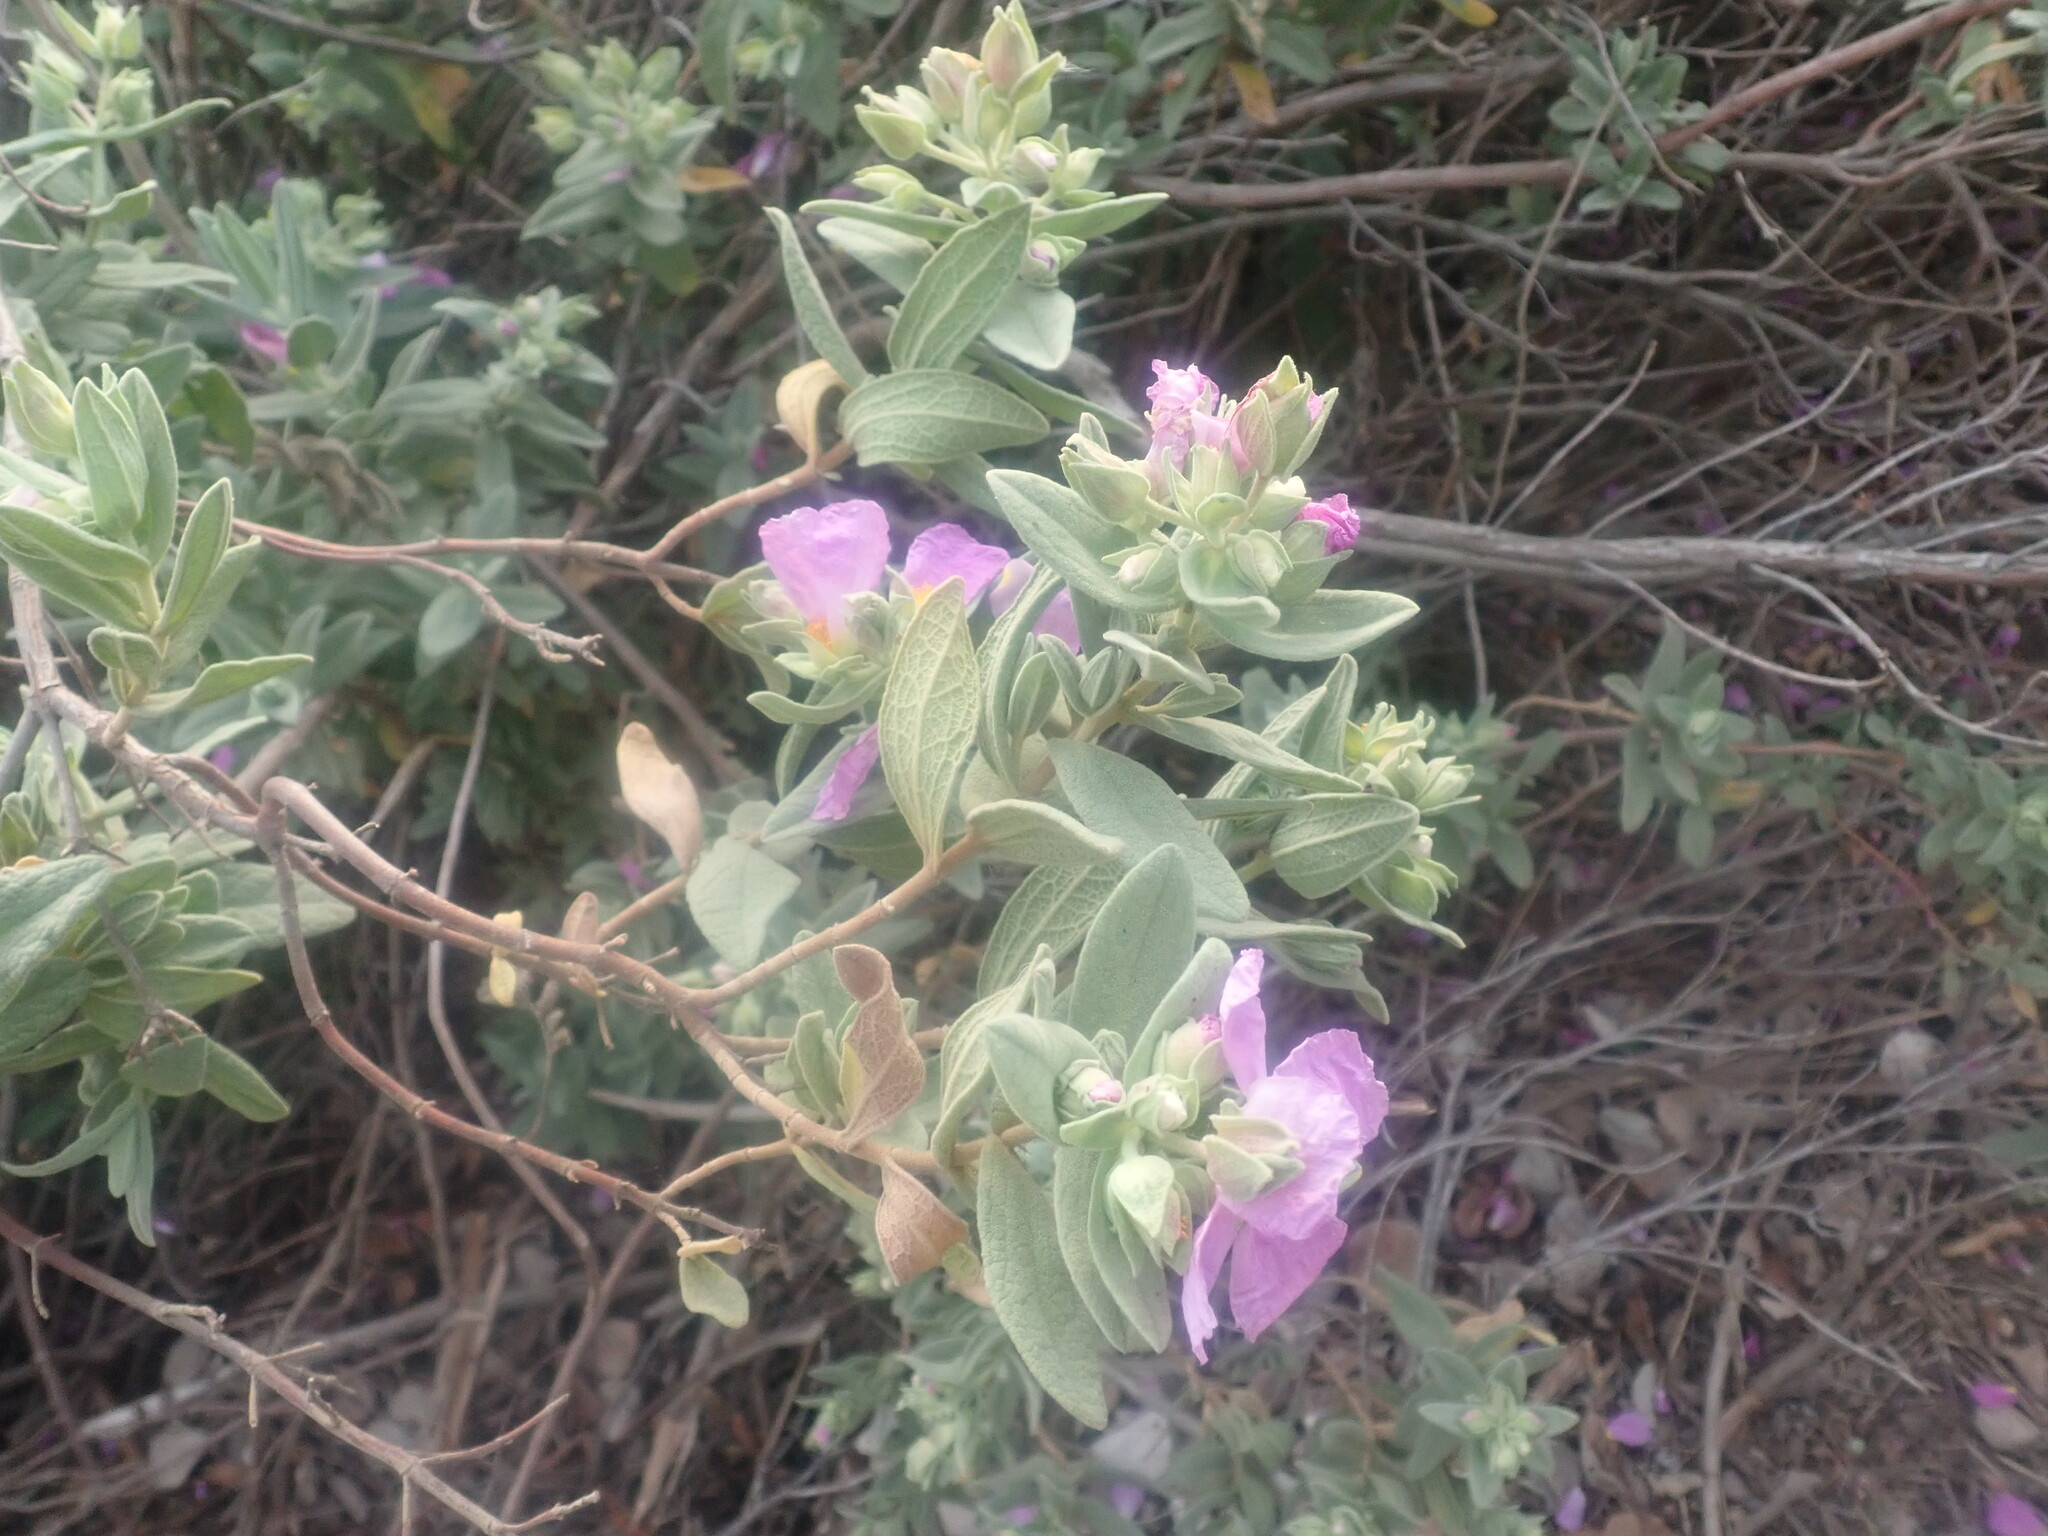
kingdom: Plantae
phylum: Tracheophyta
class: Magnoliopsida
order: Malvales
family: Cistaceae
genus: Cistus
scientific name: Cistus albidus
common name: White-leaf rock-rose
